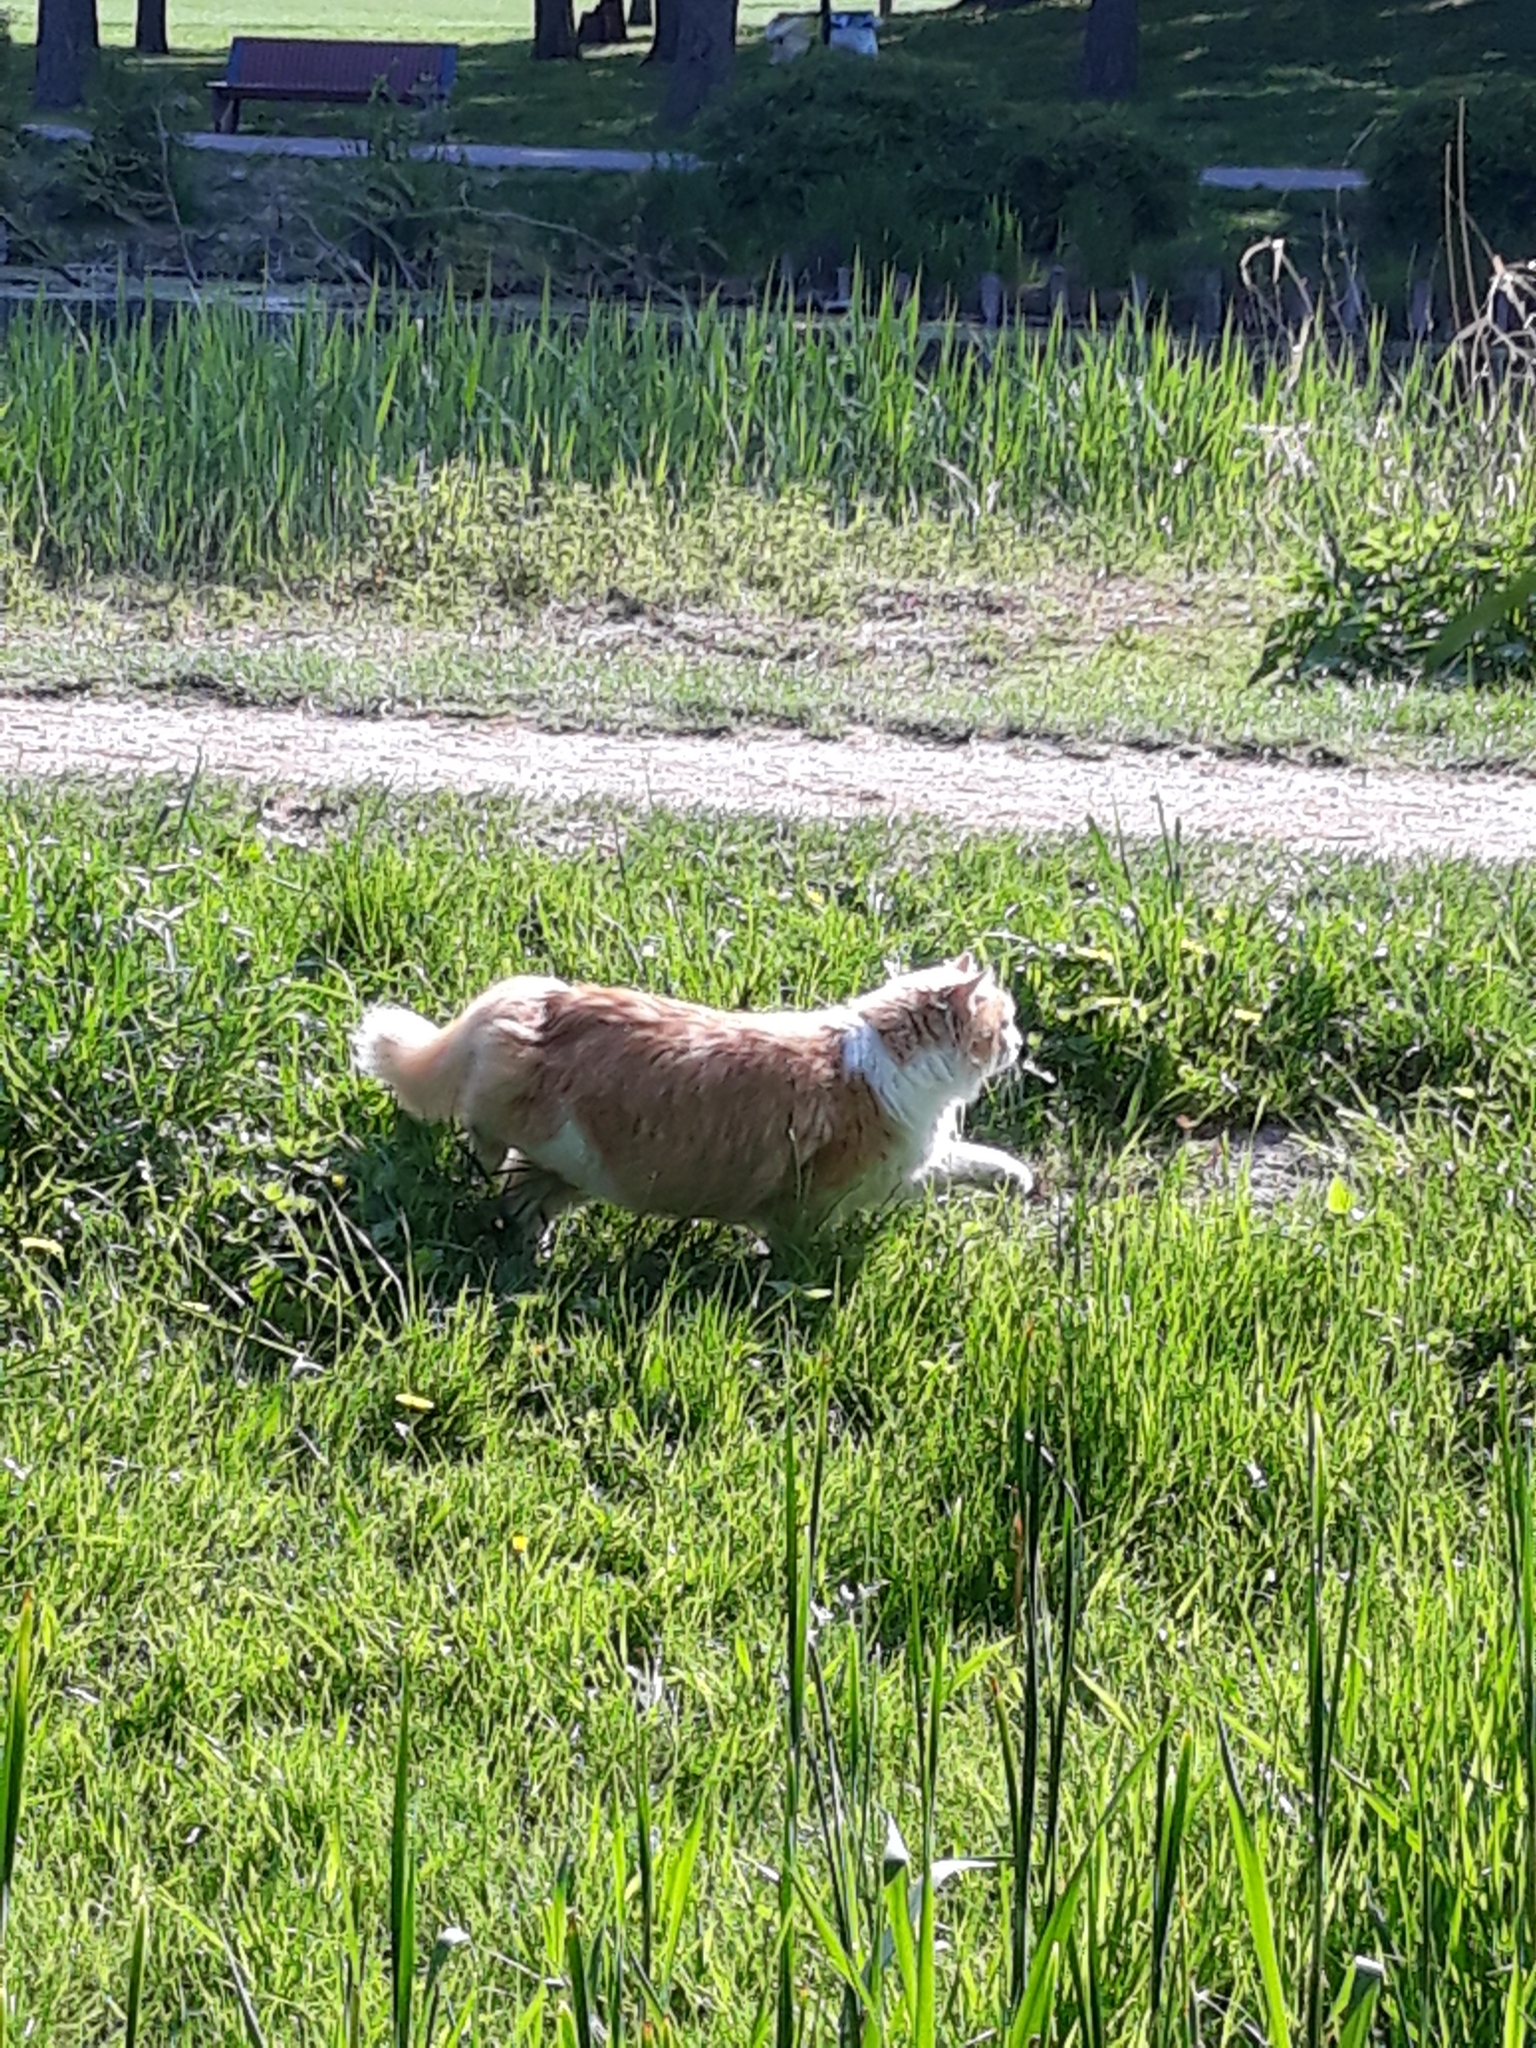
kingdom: Animalia
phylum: Chordata
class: Mammalia
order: Carnivora
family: Felidae
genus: Felis
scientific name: Felis catus
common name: Domestic cat
